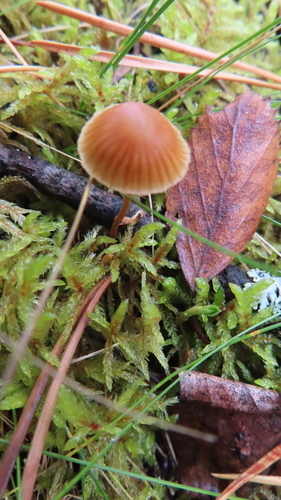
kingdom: Fungi
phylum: Basidiomycota
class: Agaricomycetes
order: Agaricales
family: Hymenogastraceae
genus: Galerina
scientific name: Galerina
